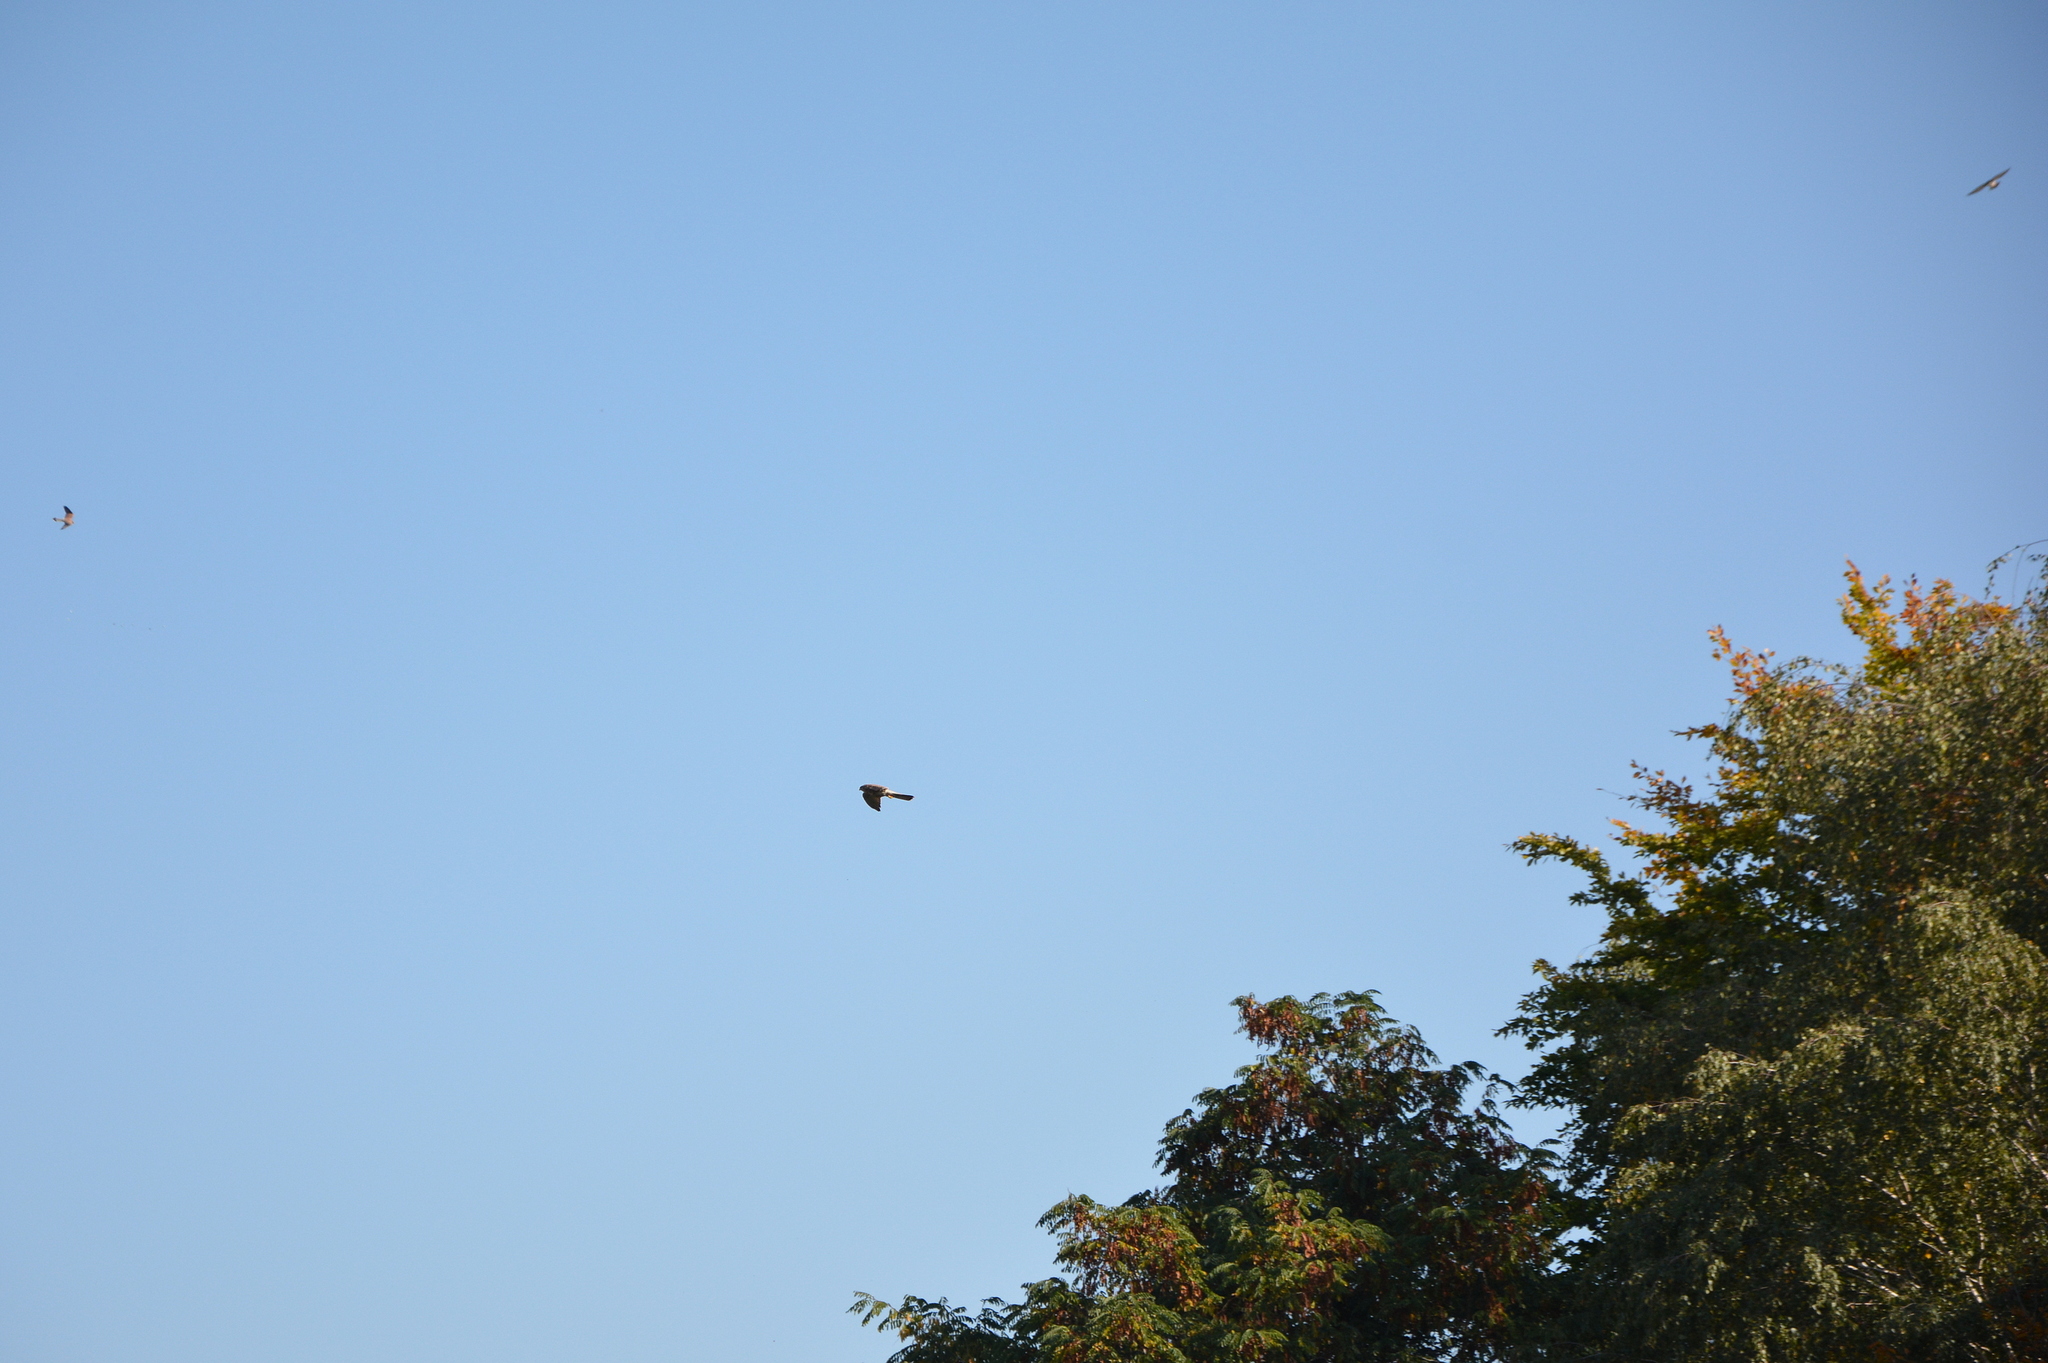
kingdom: Animalia
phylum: Chordata
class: Aves
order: Falconiformes
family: Falconidae
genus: Falco
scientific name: Falco tinnunculus
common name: Common kestrel
